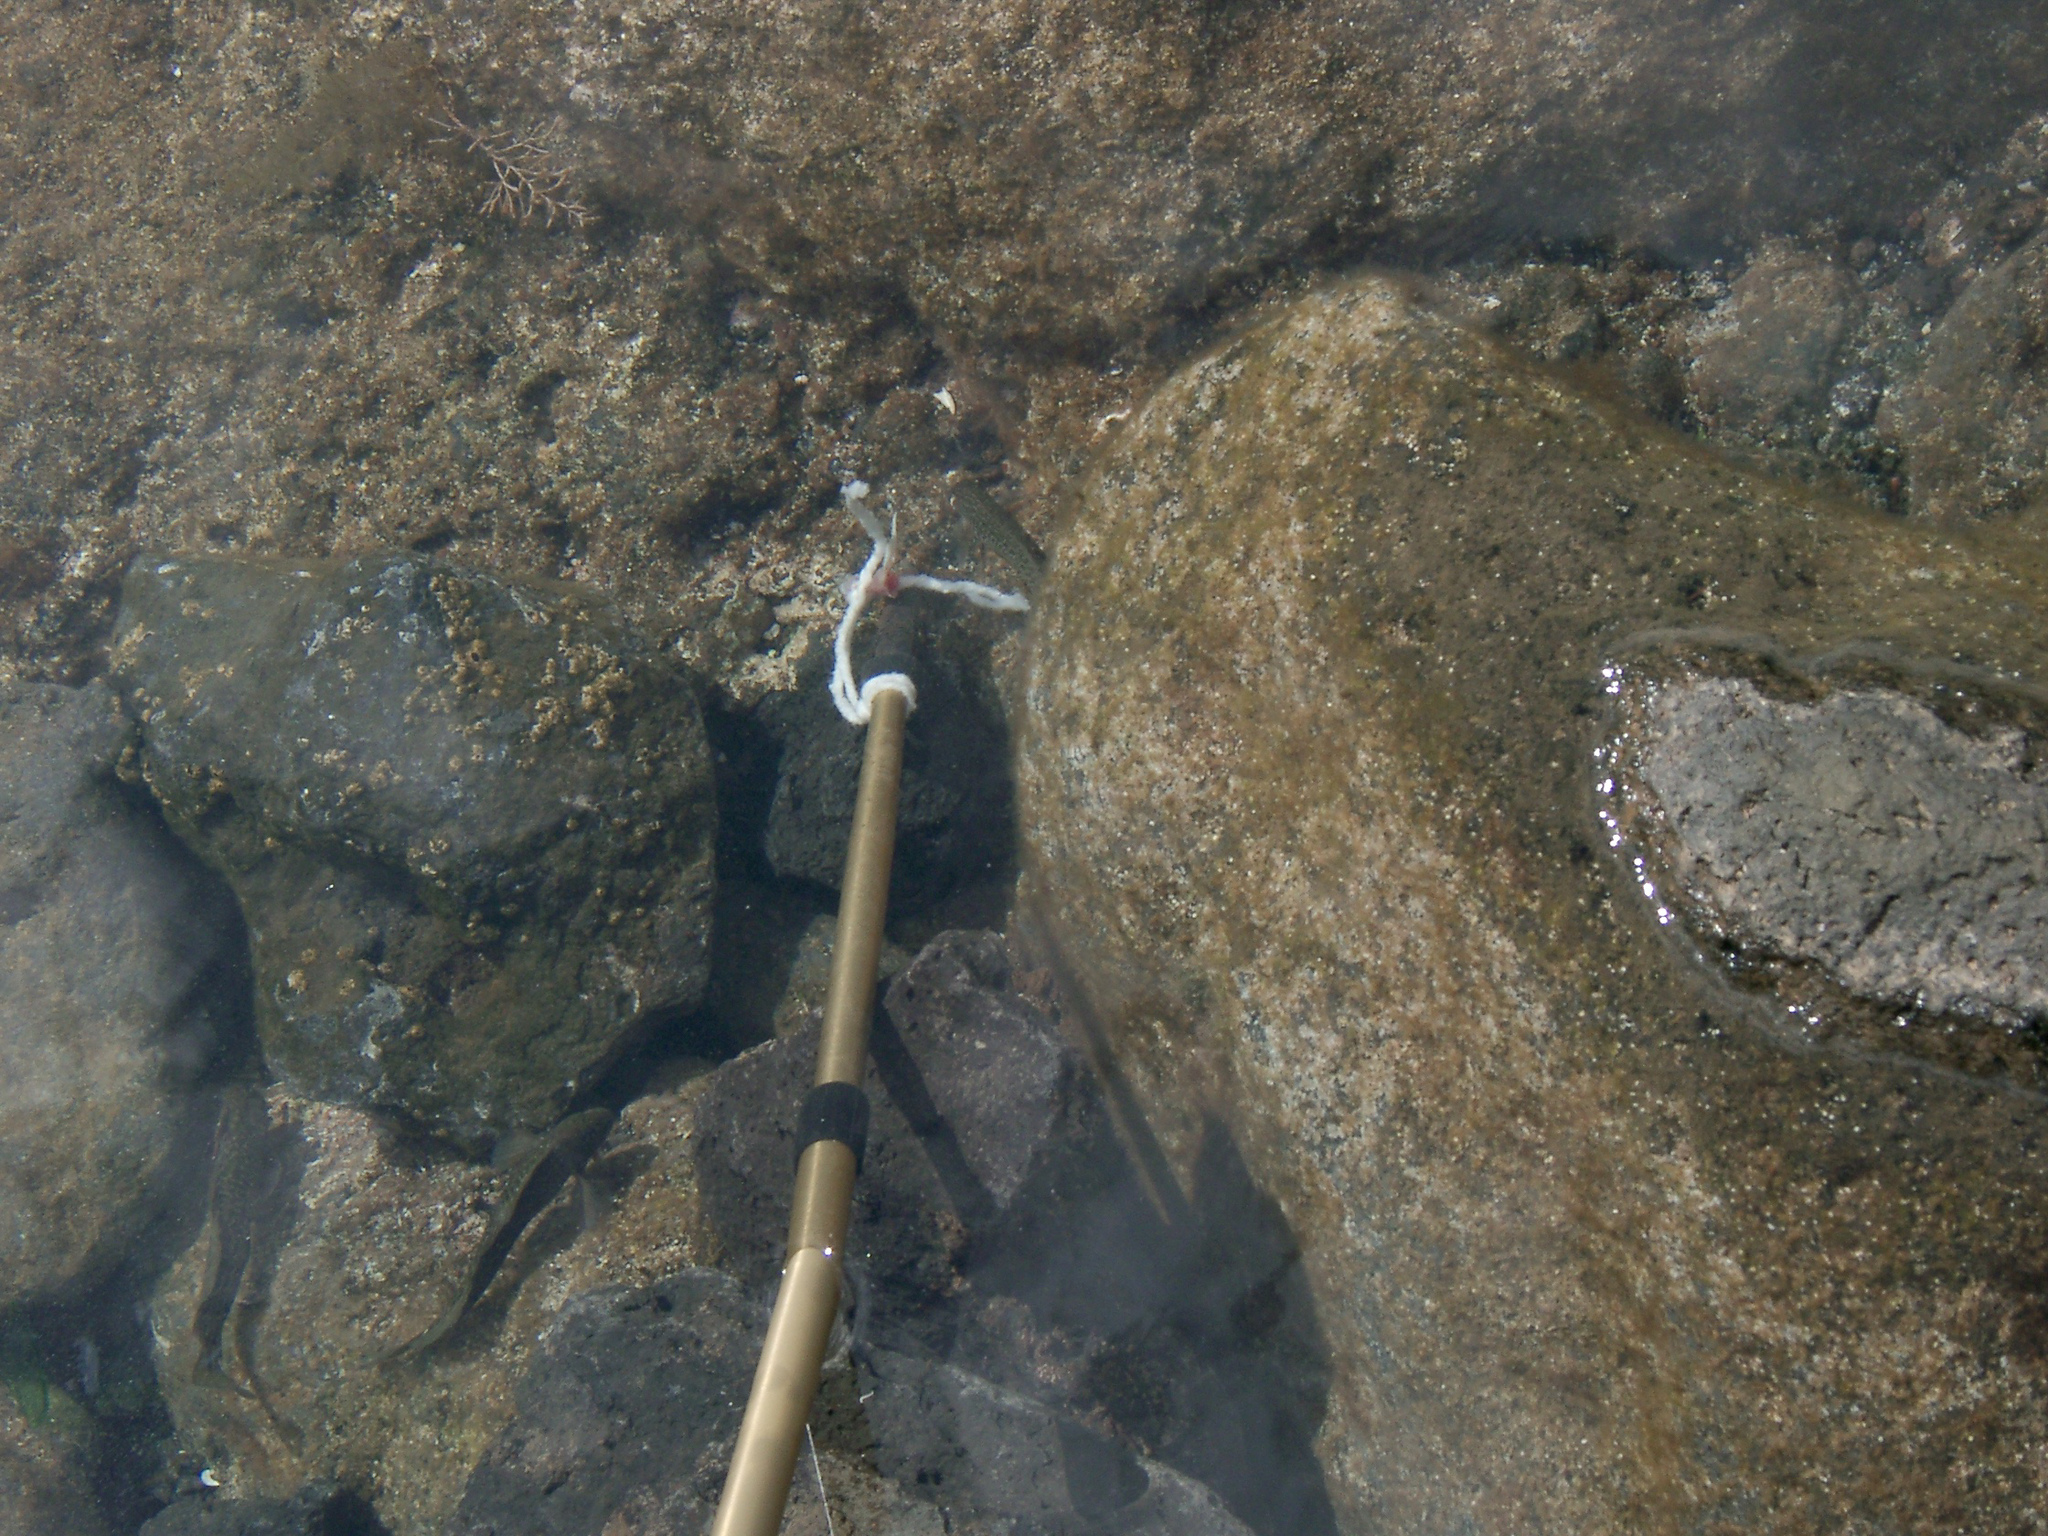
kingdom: Animalia
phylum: Chordata
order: Perciformes
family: Blenniidae
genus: Parablennius
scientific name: Parablennius parvicornis
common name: Rock-pool blenny
